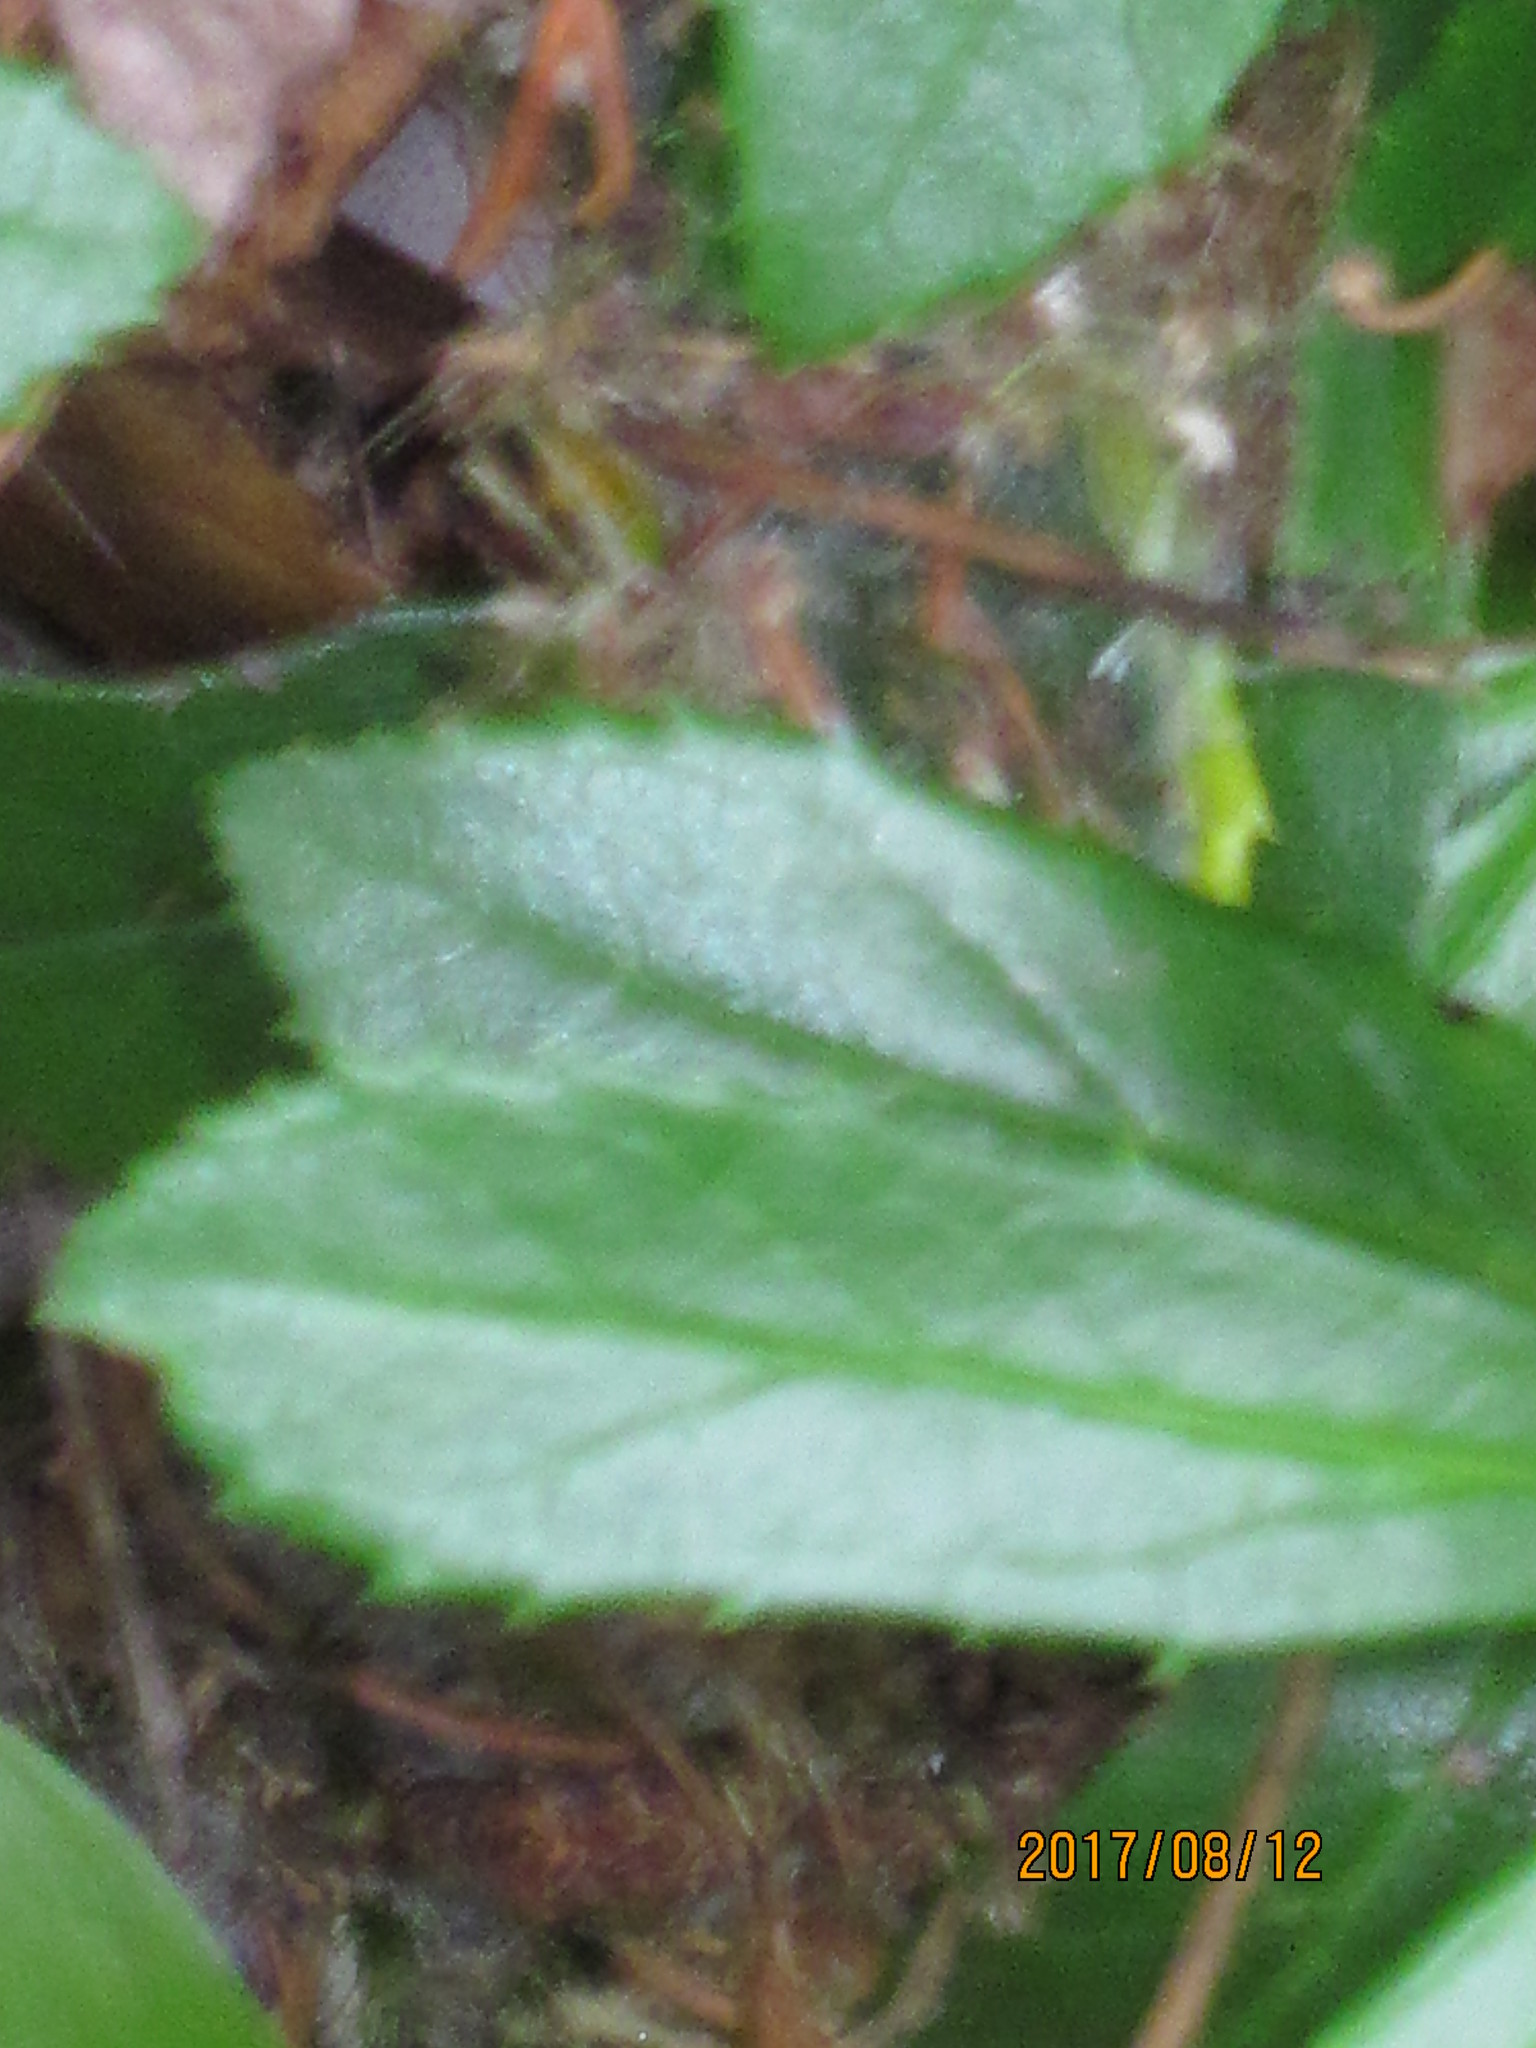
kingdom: Plantae
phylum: Tracheophyta
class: Magnoliopsida
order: Ericales
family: Ericaceae
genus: Chimaphila
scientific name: Chimaphila umbellata
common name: Pipsissewa
